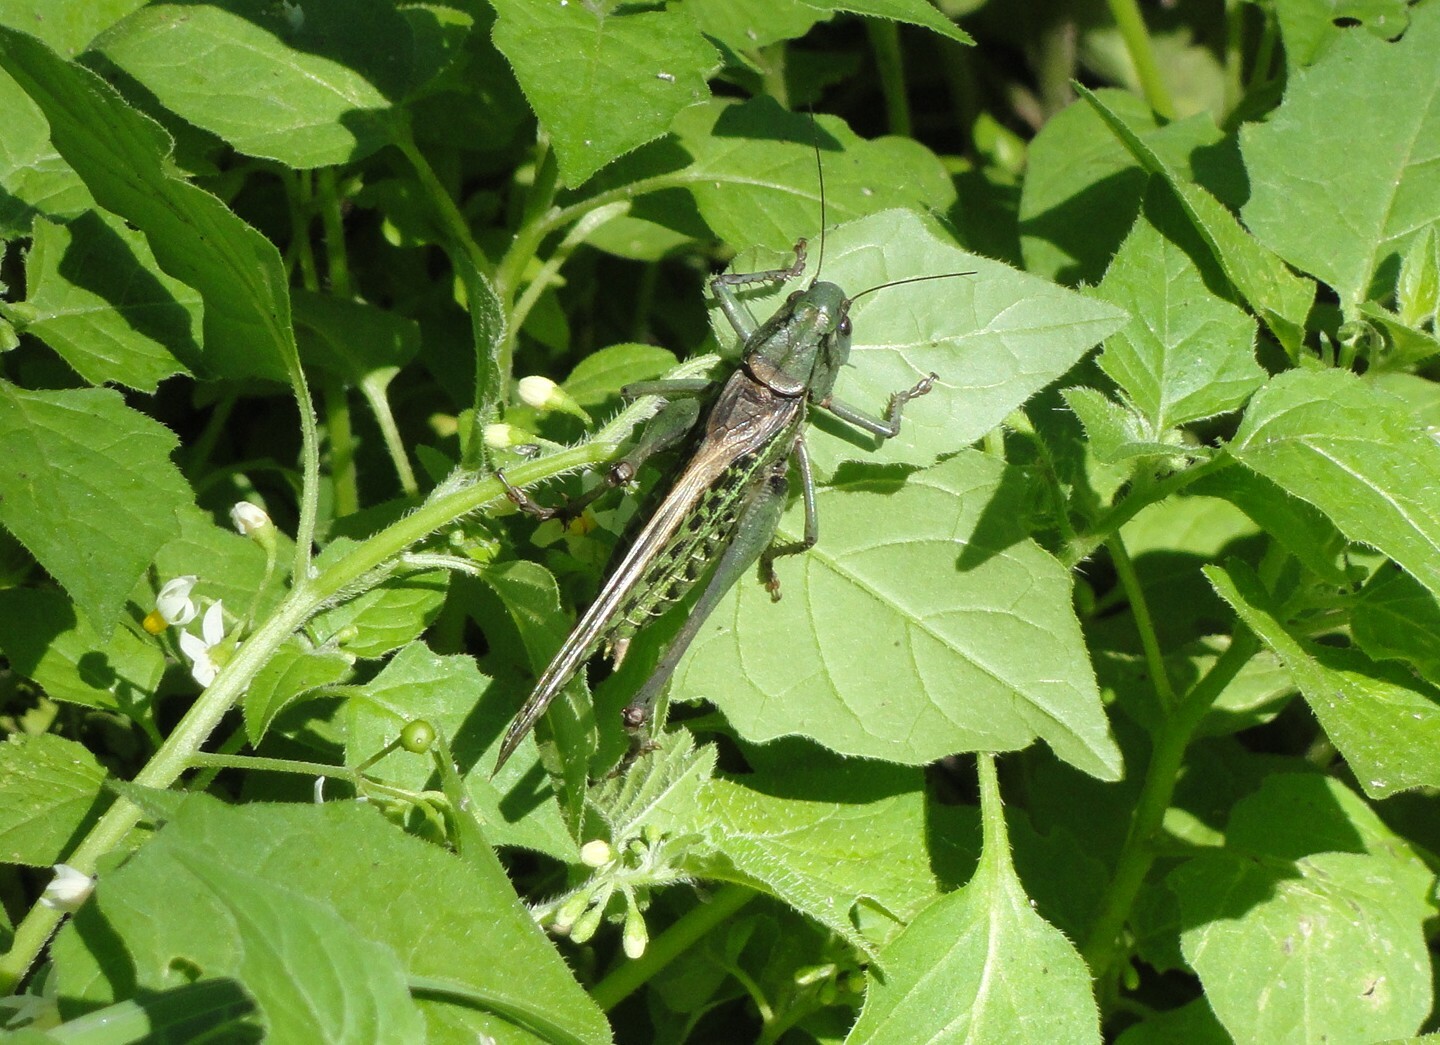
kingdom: Animalia
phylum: Arthropoda
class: Insecta
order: Orthoptera
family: Tettigoniidae
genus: Decticus
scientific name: Decticus verrucivorus
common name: Wart-biter
